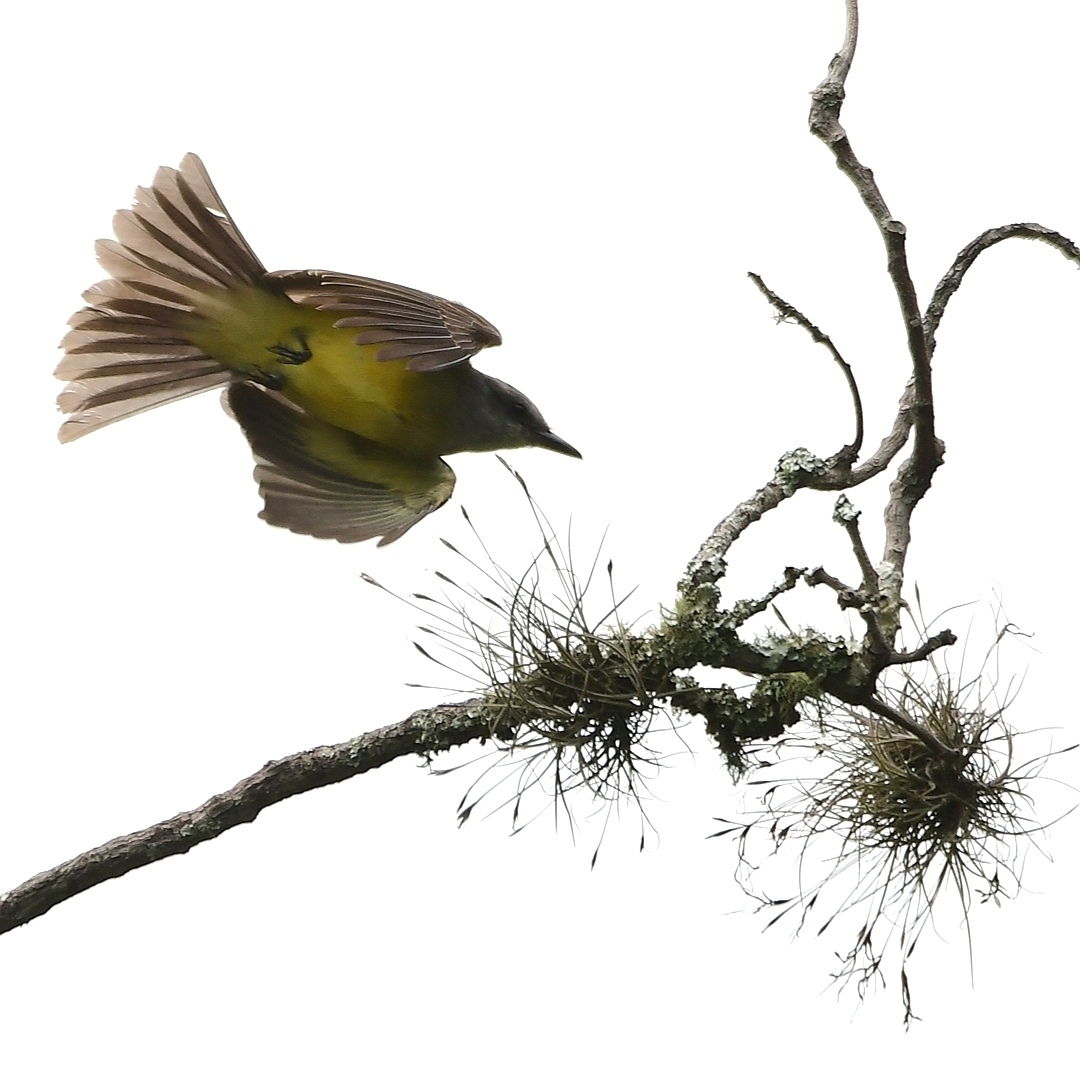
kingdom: Animalia
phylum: Chordata
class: Aves
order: Passeriformes
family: Tyrannidae
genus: Tyrannus
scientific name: Tyrannus melancholicus
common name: Tropical kingbird
